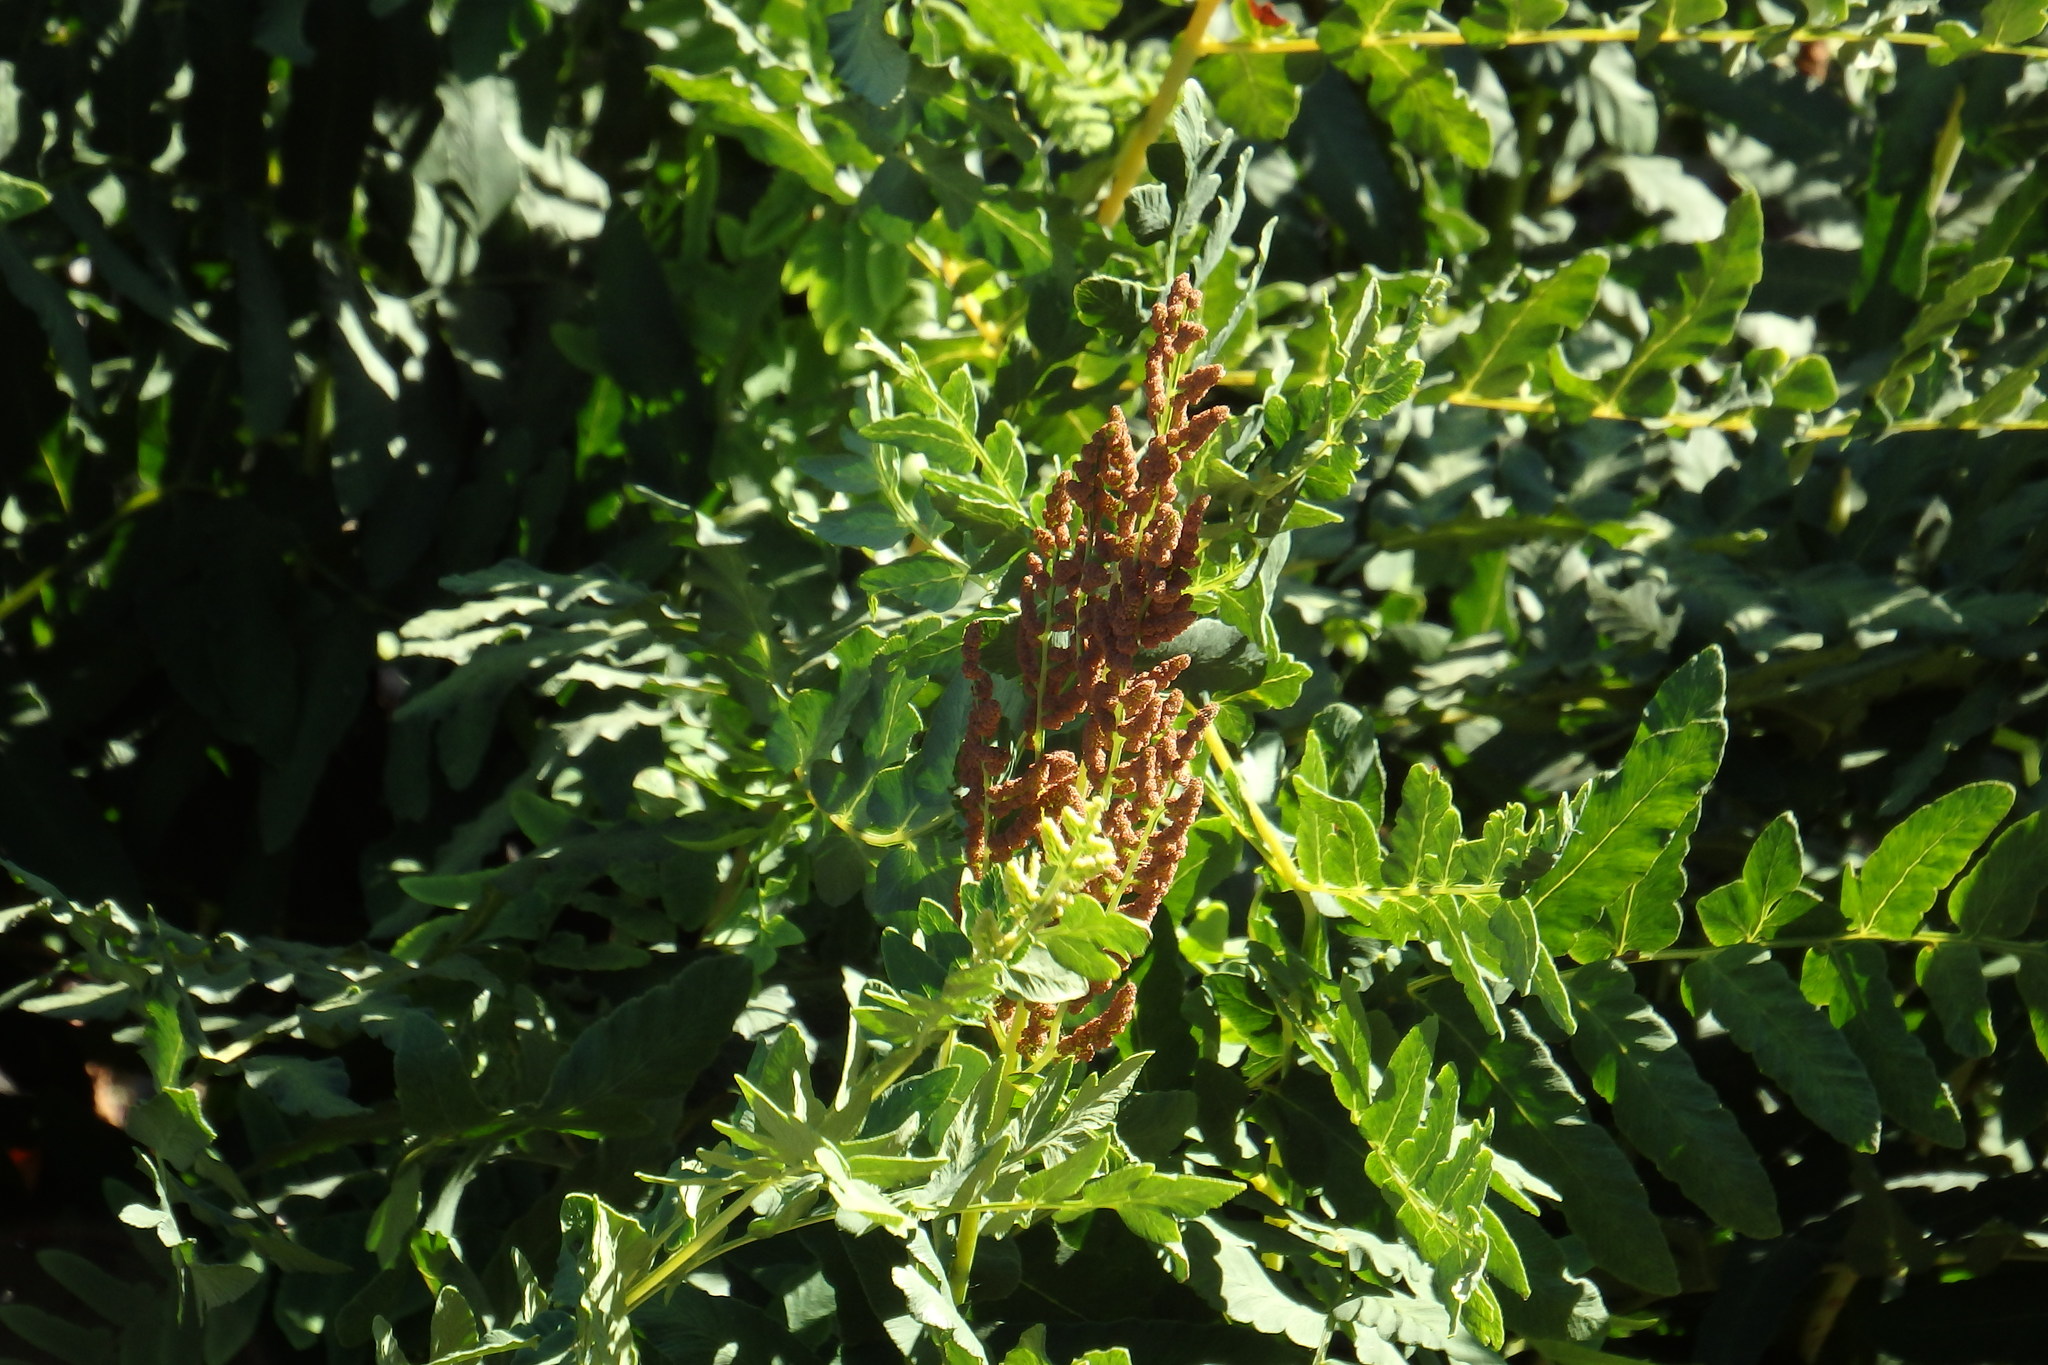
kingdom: Plantae
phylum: Tracheophyta
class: Polypodiopsida
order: Osmundales
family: Osmundaceae
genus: Osmunda
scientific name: Osmunda regalis
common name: Royal fern
